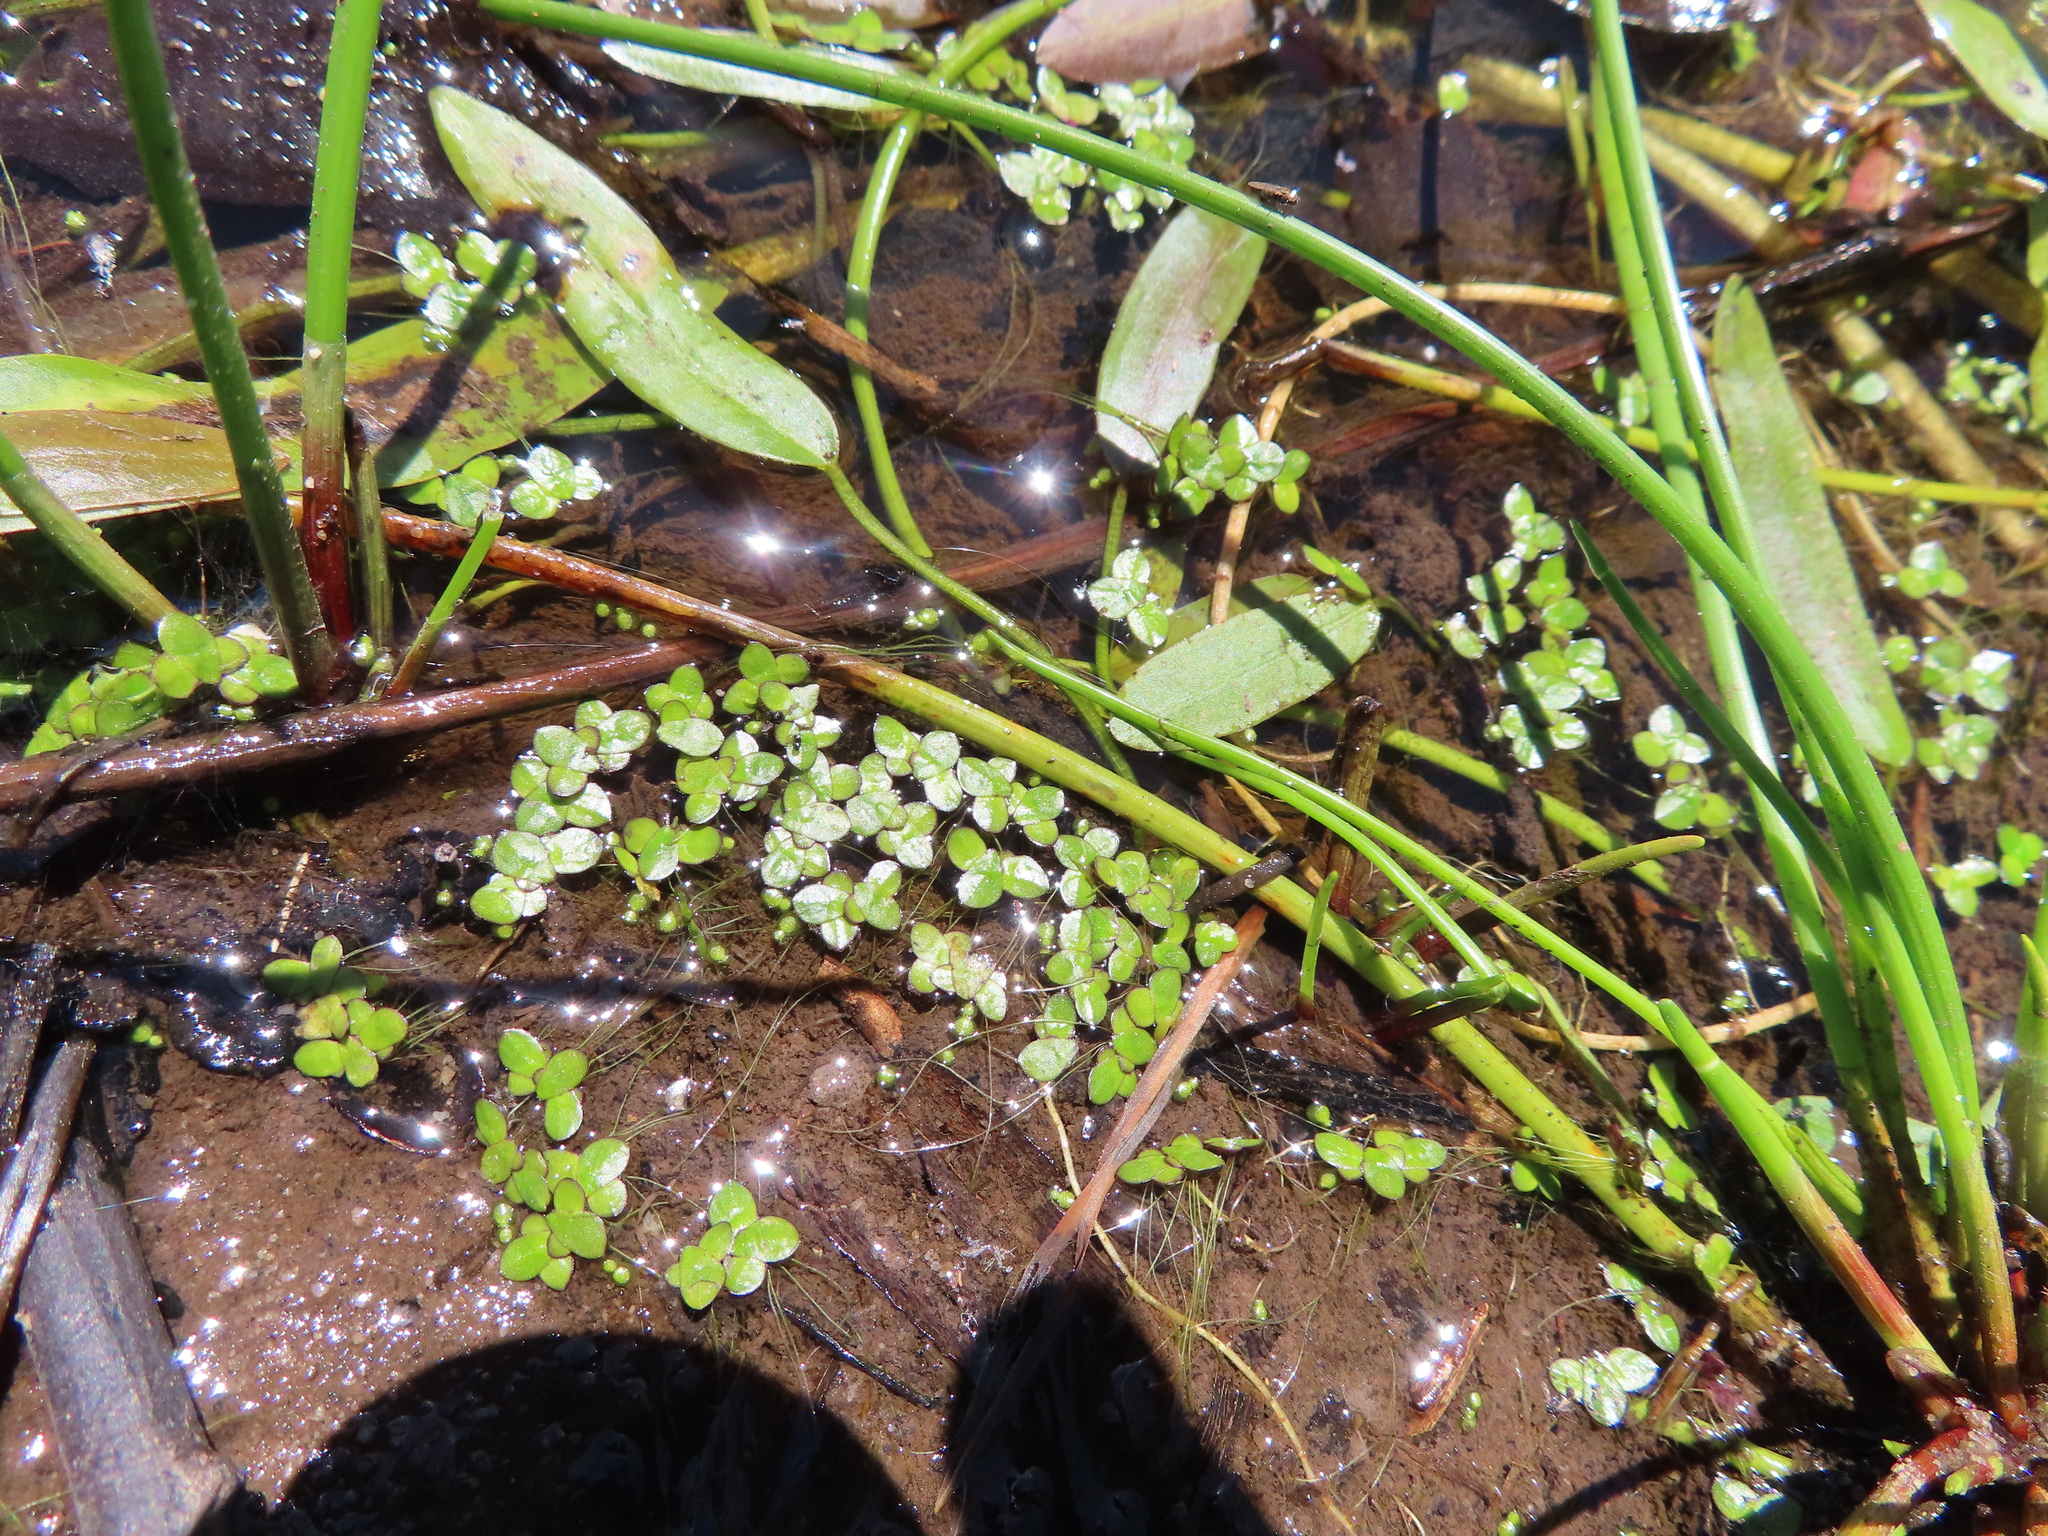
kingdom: Plantae
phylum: Tracheophyta
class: Liliopsida
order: Alismatales
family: Araceae
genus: Lemna
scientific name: Lemna minor
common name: Common duckweed
